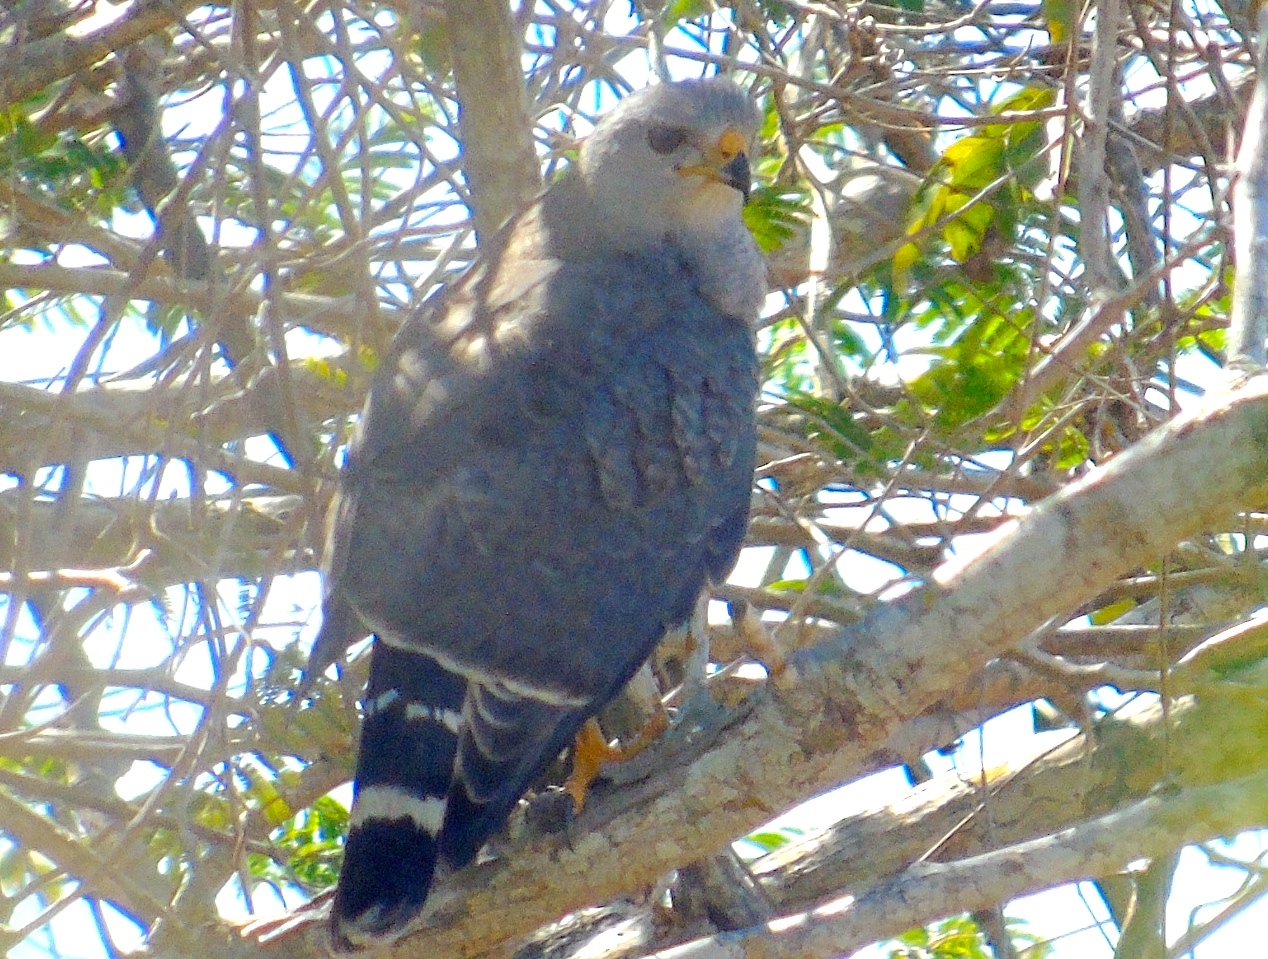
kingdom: Animalia
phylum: Chordata
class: Aves
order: Accipitriformes
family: Accipitridae
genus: Buteo
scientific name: Buteo nitidus
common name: Grey-lined hawk
